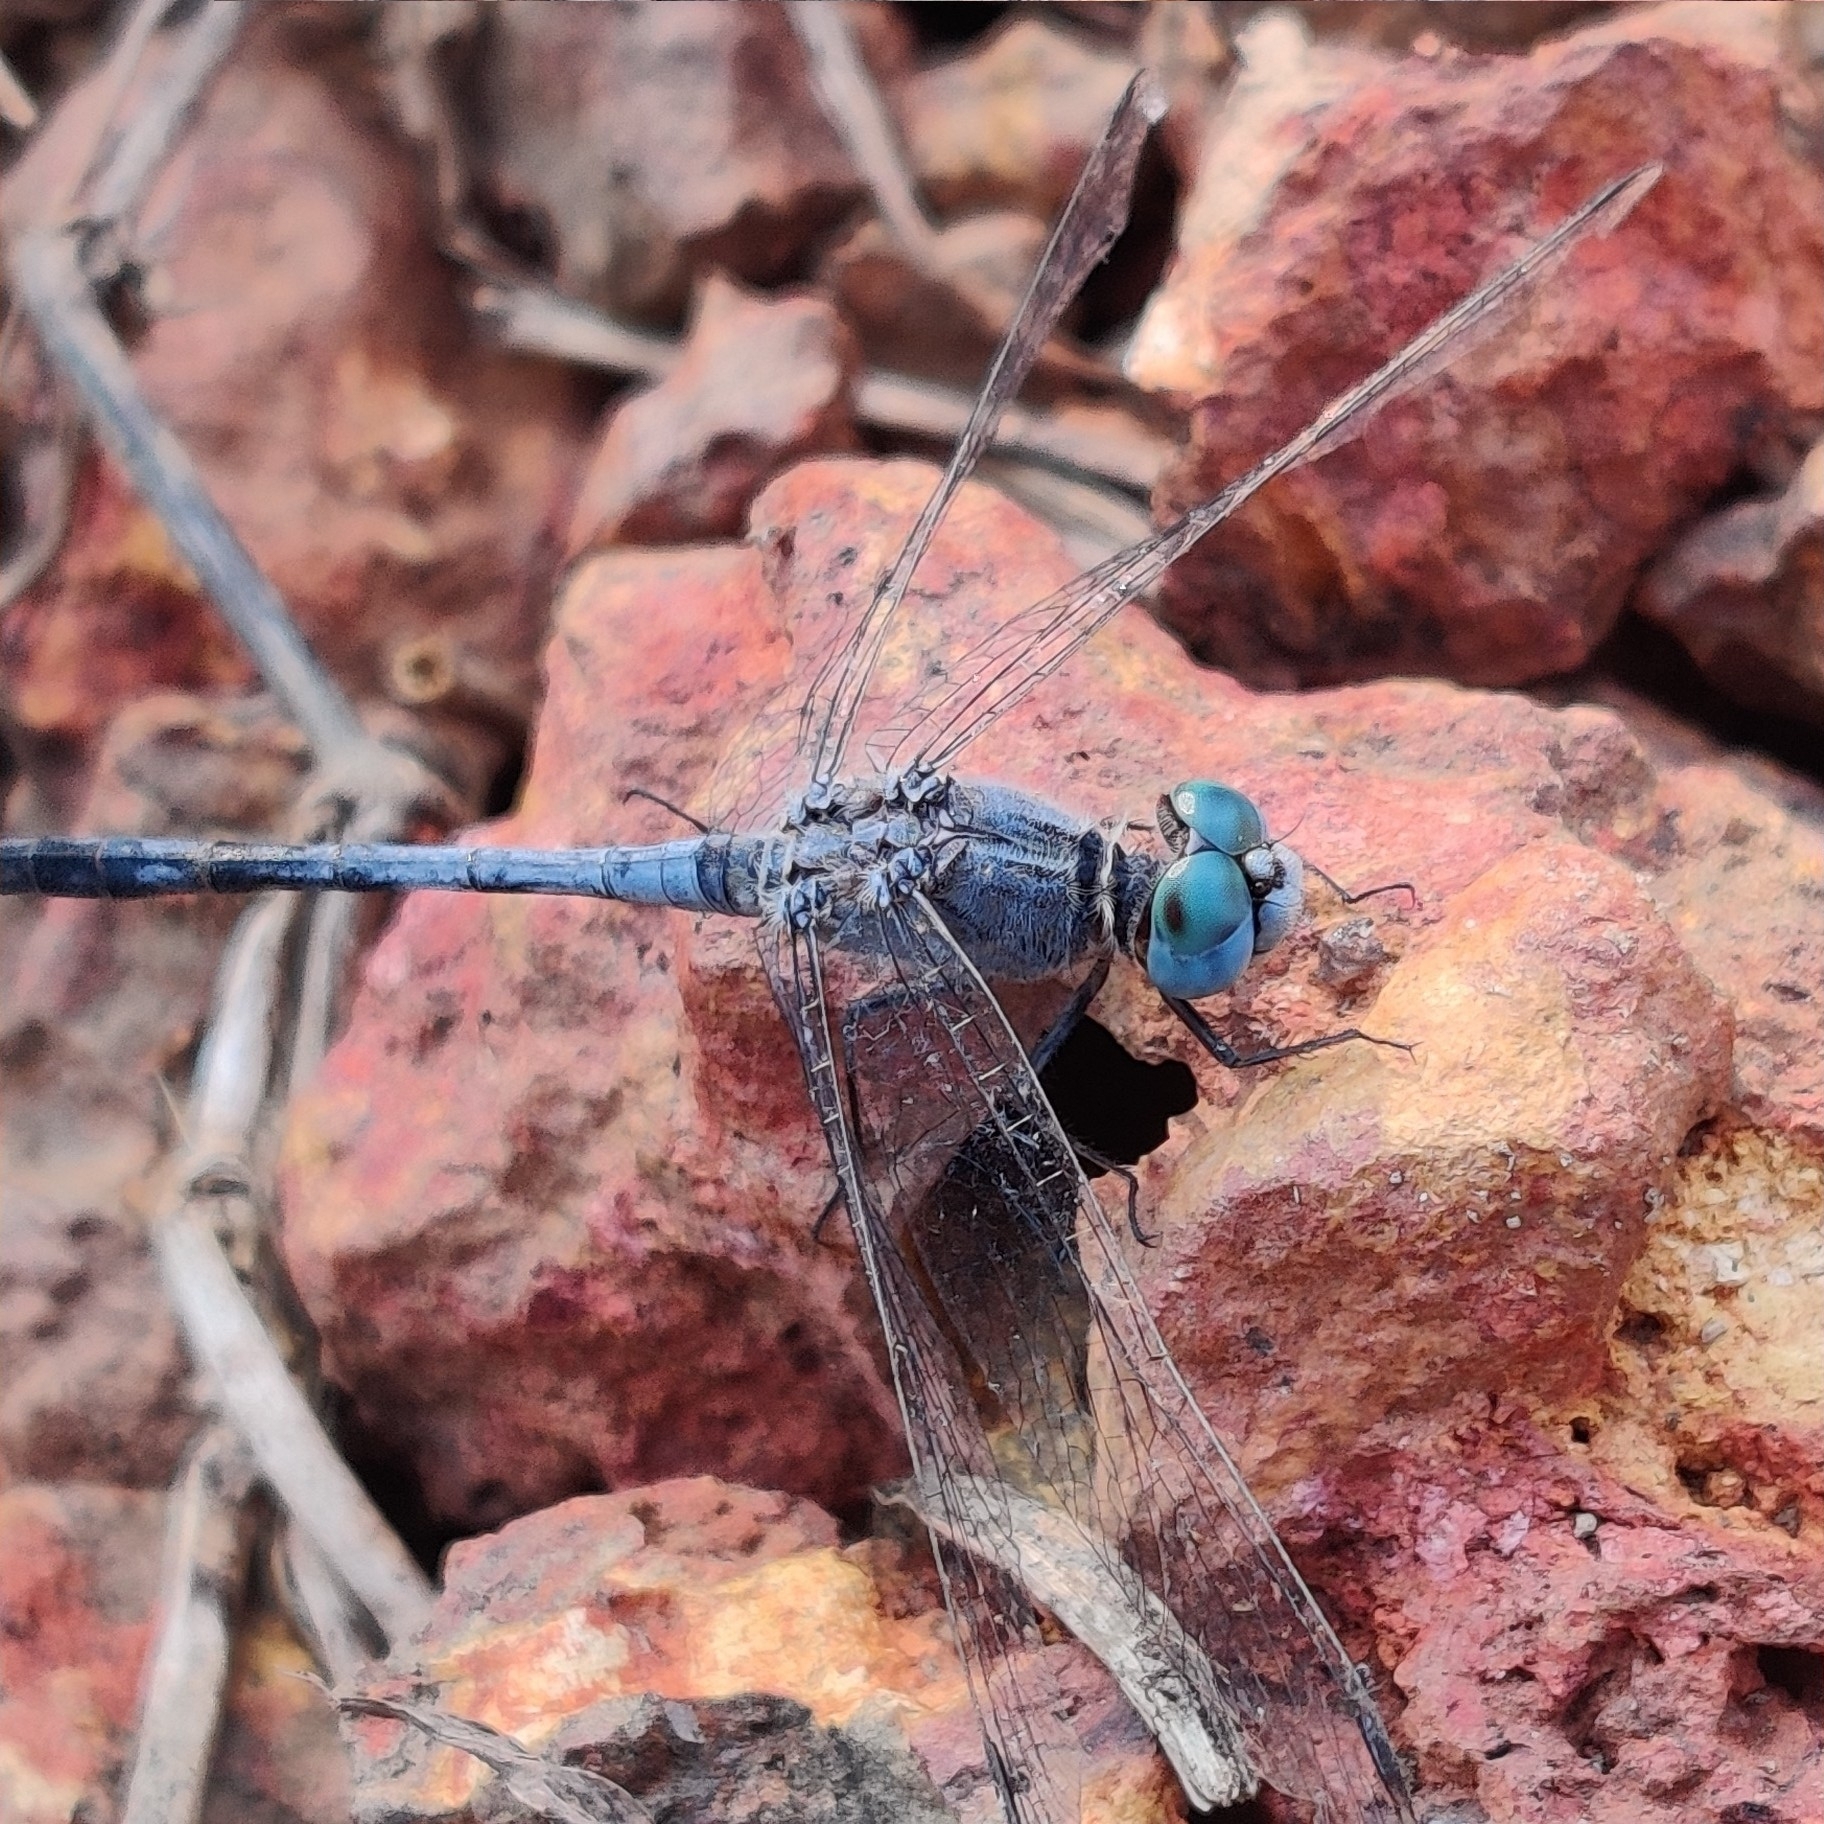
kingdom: Animalia
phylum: Arthropoda
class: Insecta
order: Odonata
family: Libellulidae
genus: Diplacodes
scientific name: Diplacodes trivialis
